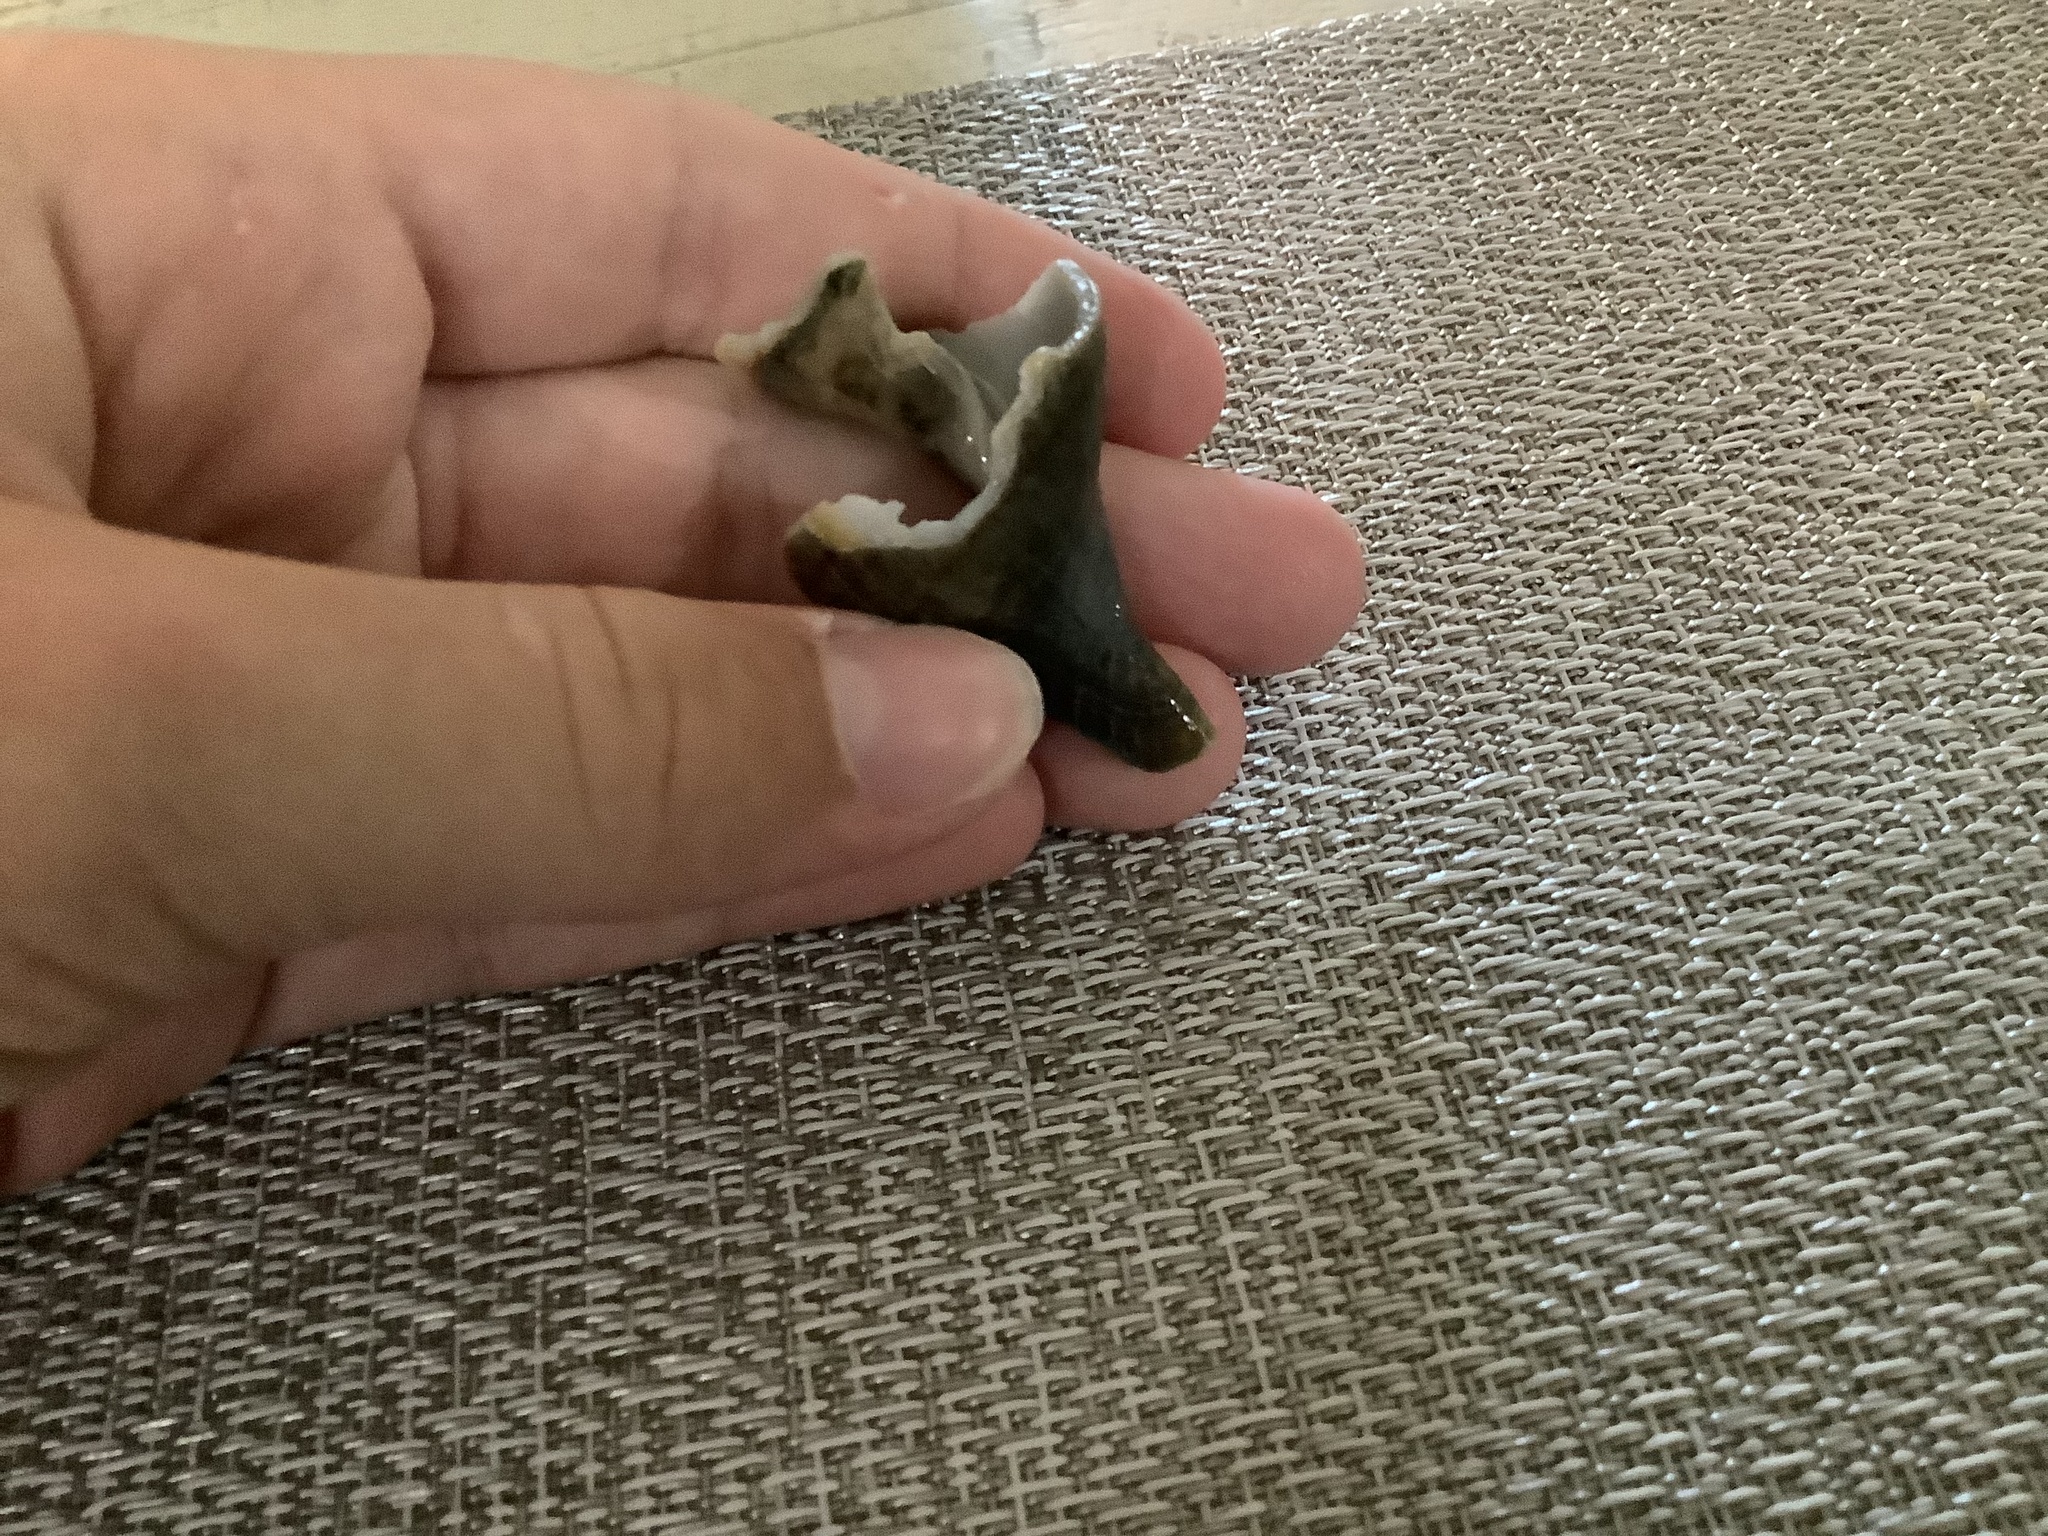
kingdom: Animalia
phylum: Mollusca
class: Gastropoda
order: Neogastropoda
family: Fasciolariidae
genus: Cinctura
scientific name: Cinctura hunteria
